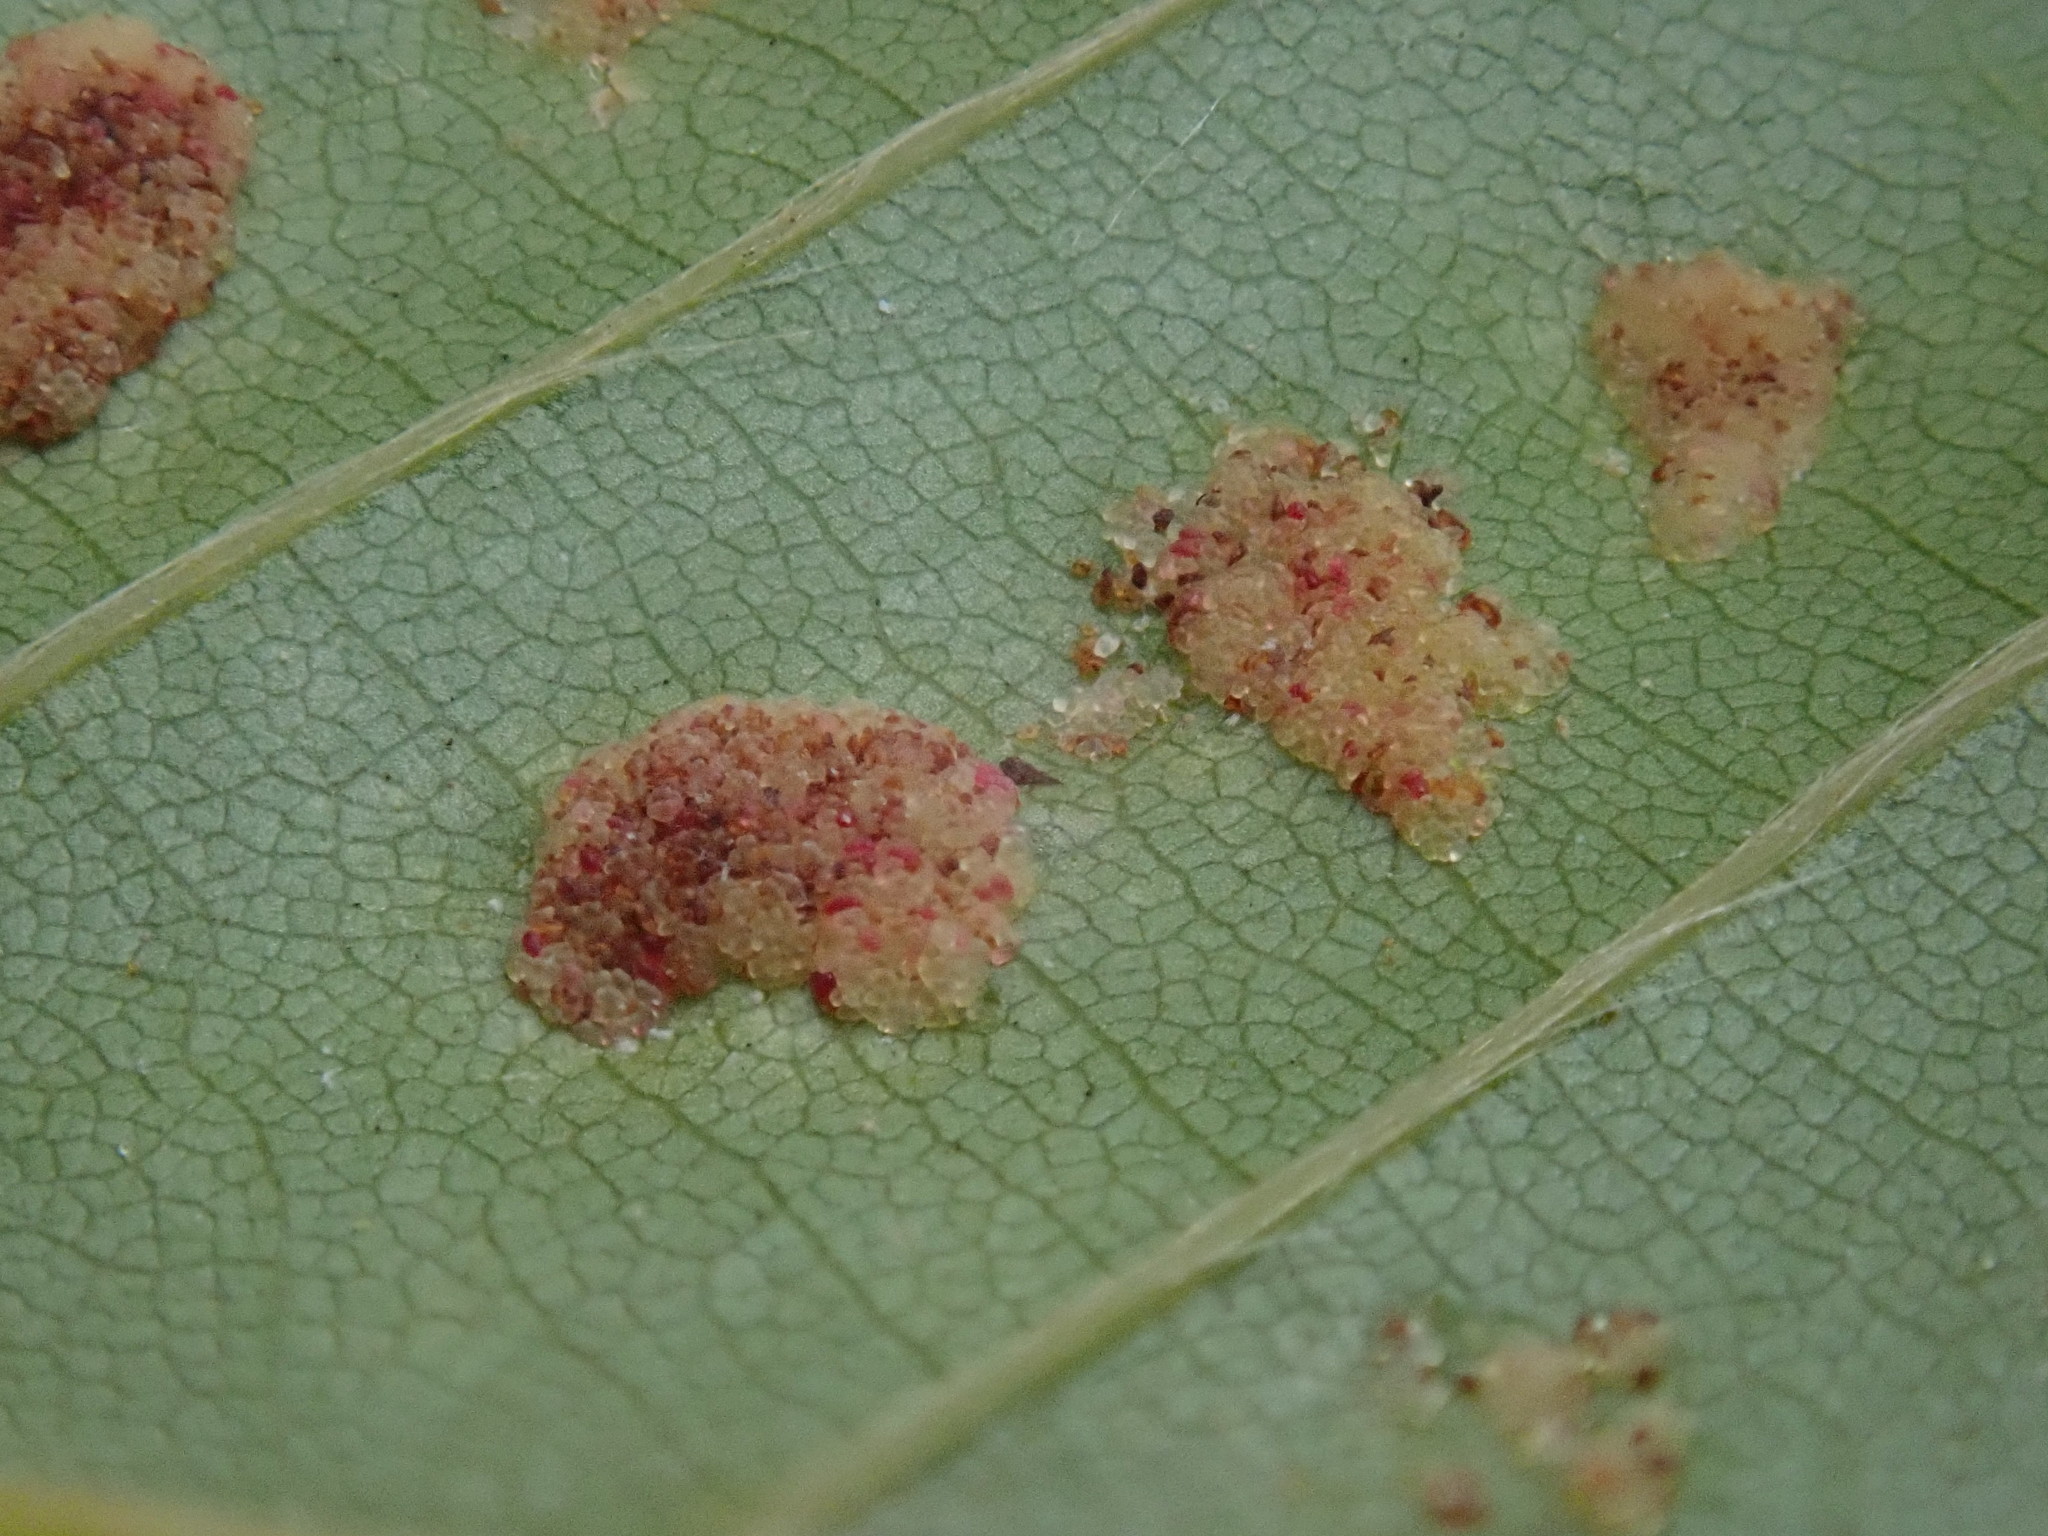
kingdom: Animalia
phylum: Arthropoda
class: Arachnida
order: Trombidiformes
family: Eriophyidae
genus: Acalitus
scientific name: Acalitus
